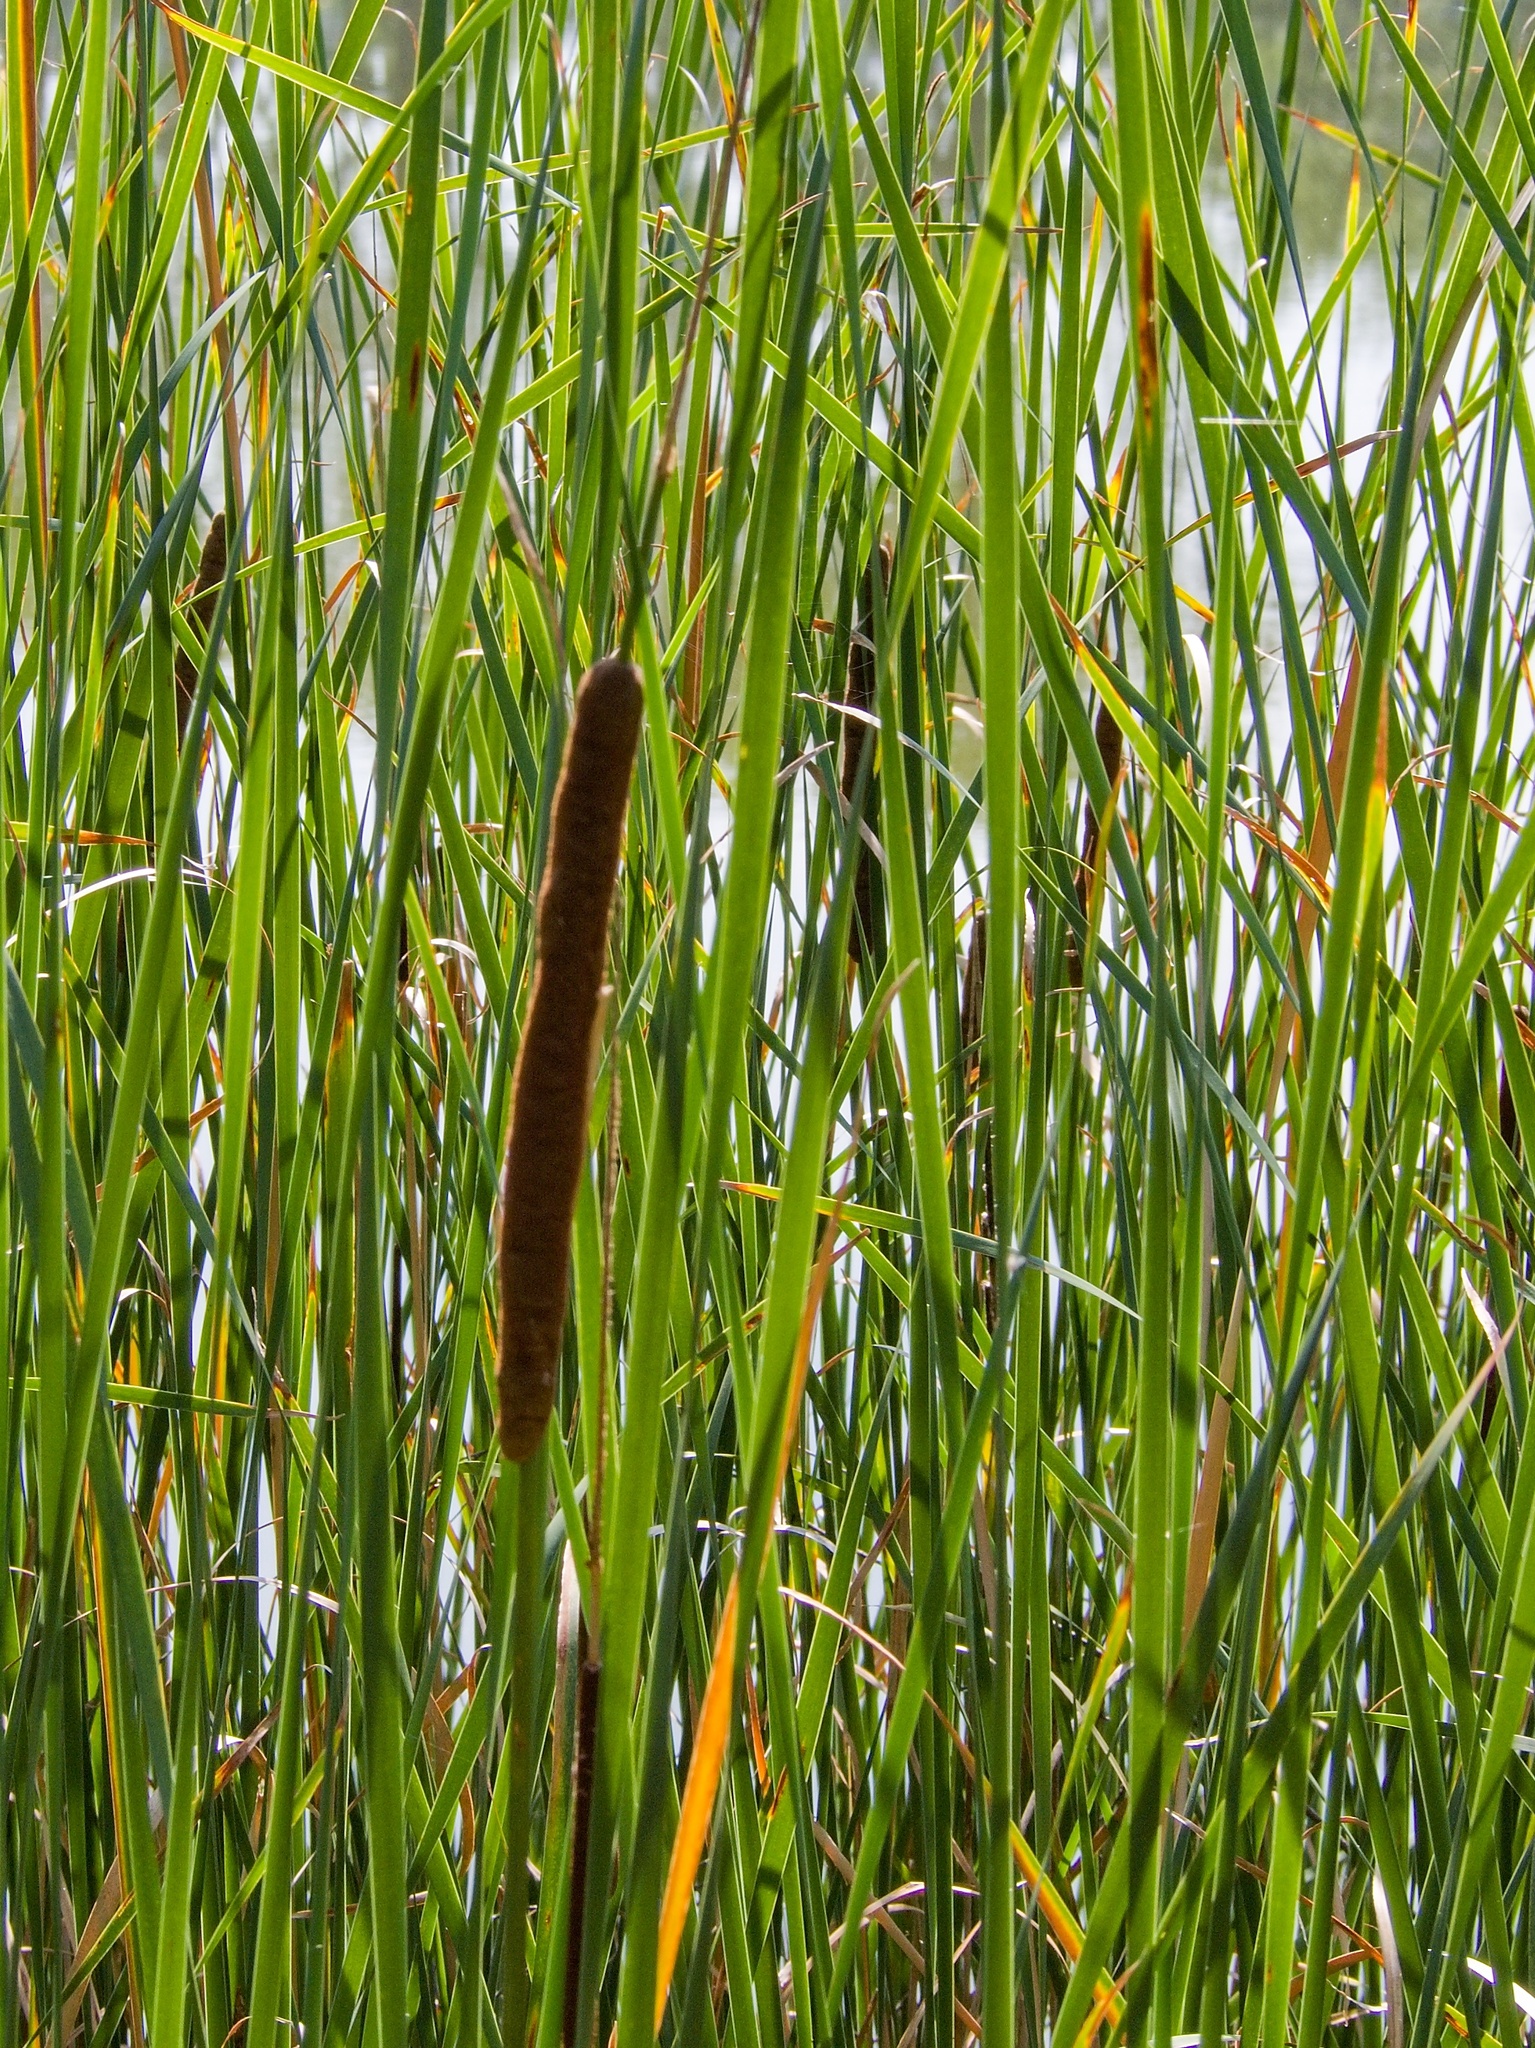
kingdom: Plantae
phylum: Tracheophyta
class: Liliopsida
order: Poales
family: Typhaceae
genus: Typha
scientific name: Typha angustifolia
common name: Lesser bulrush
